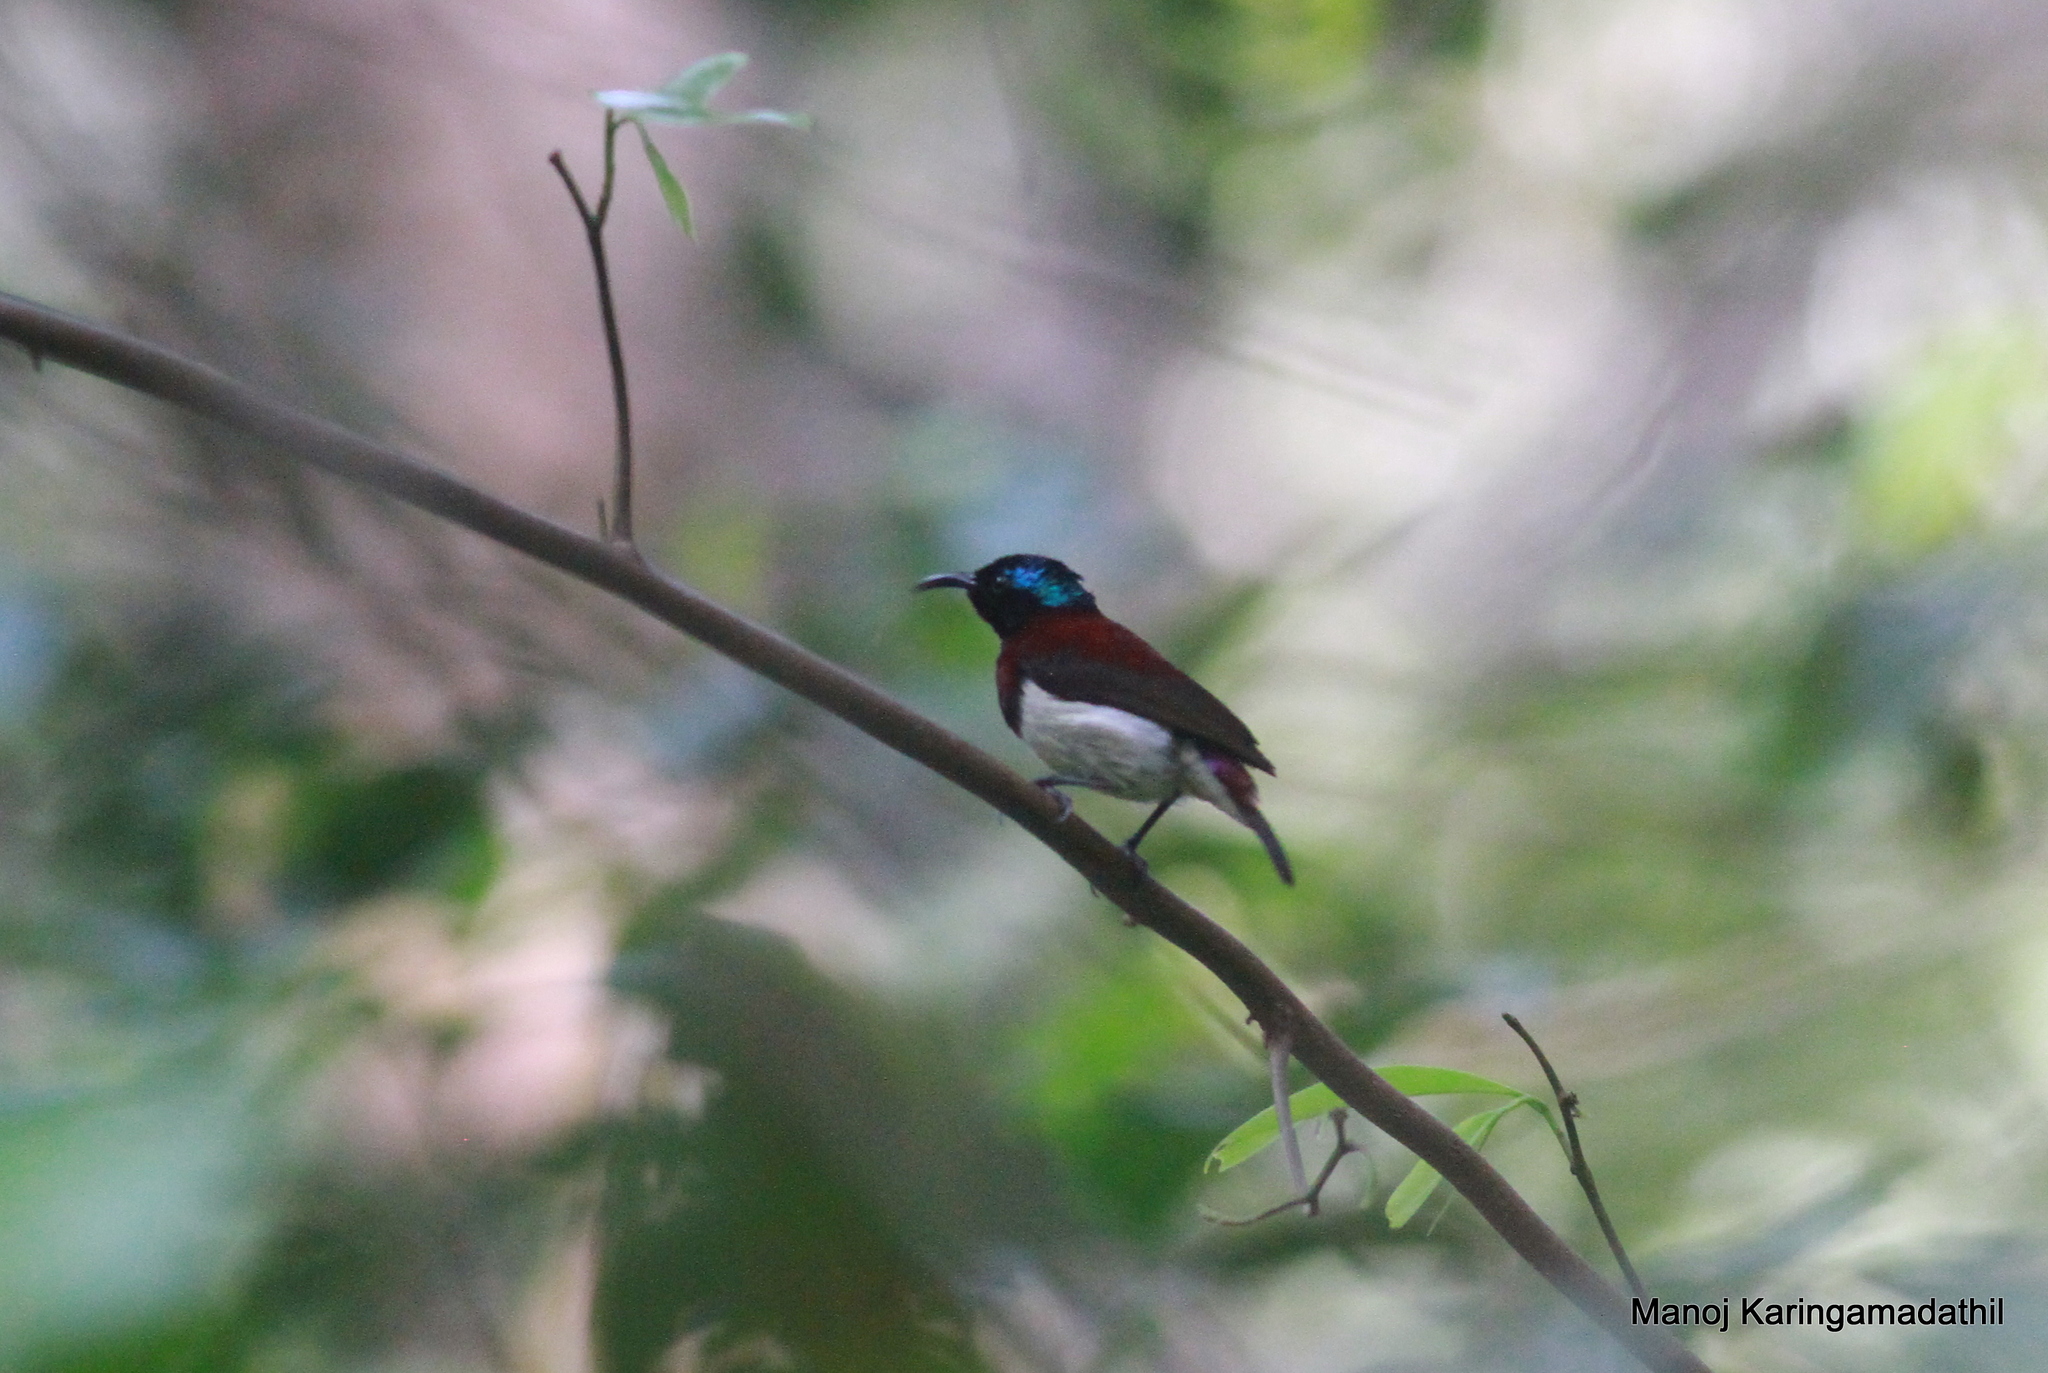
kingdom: Animalia
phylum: Chordata
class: Aves
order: Passeriformes
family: Nectariniidae
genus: Leptocoma
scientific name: Leptocoma minima
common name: Crimson-backed sunbird
